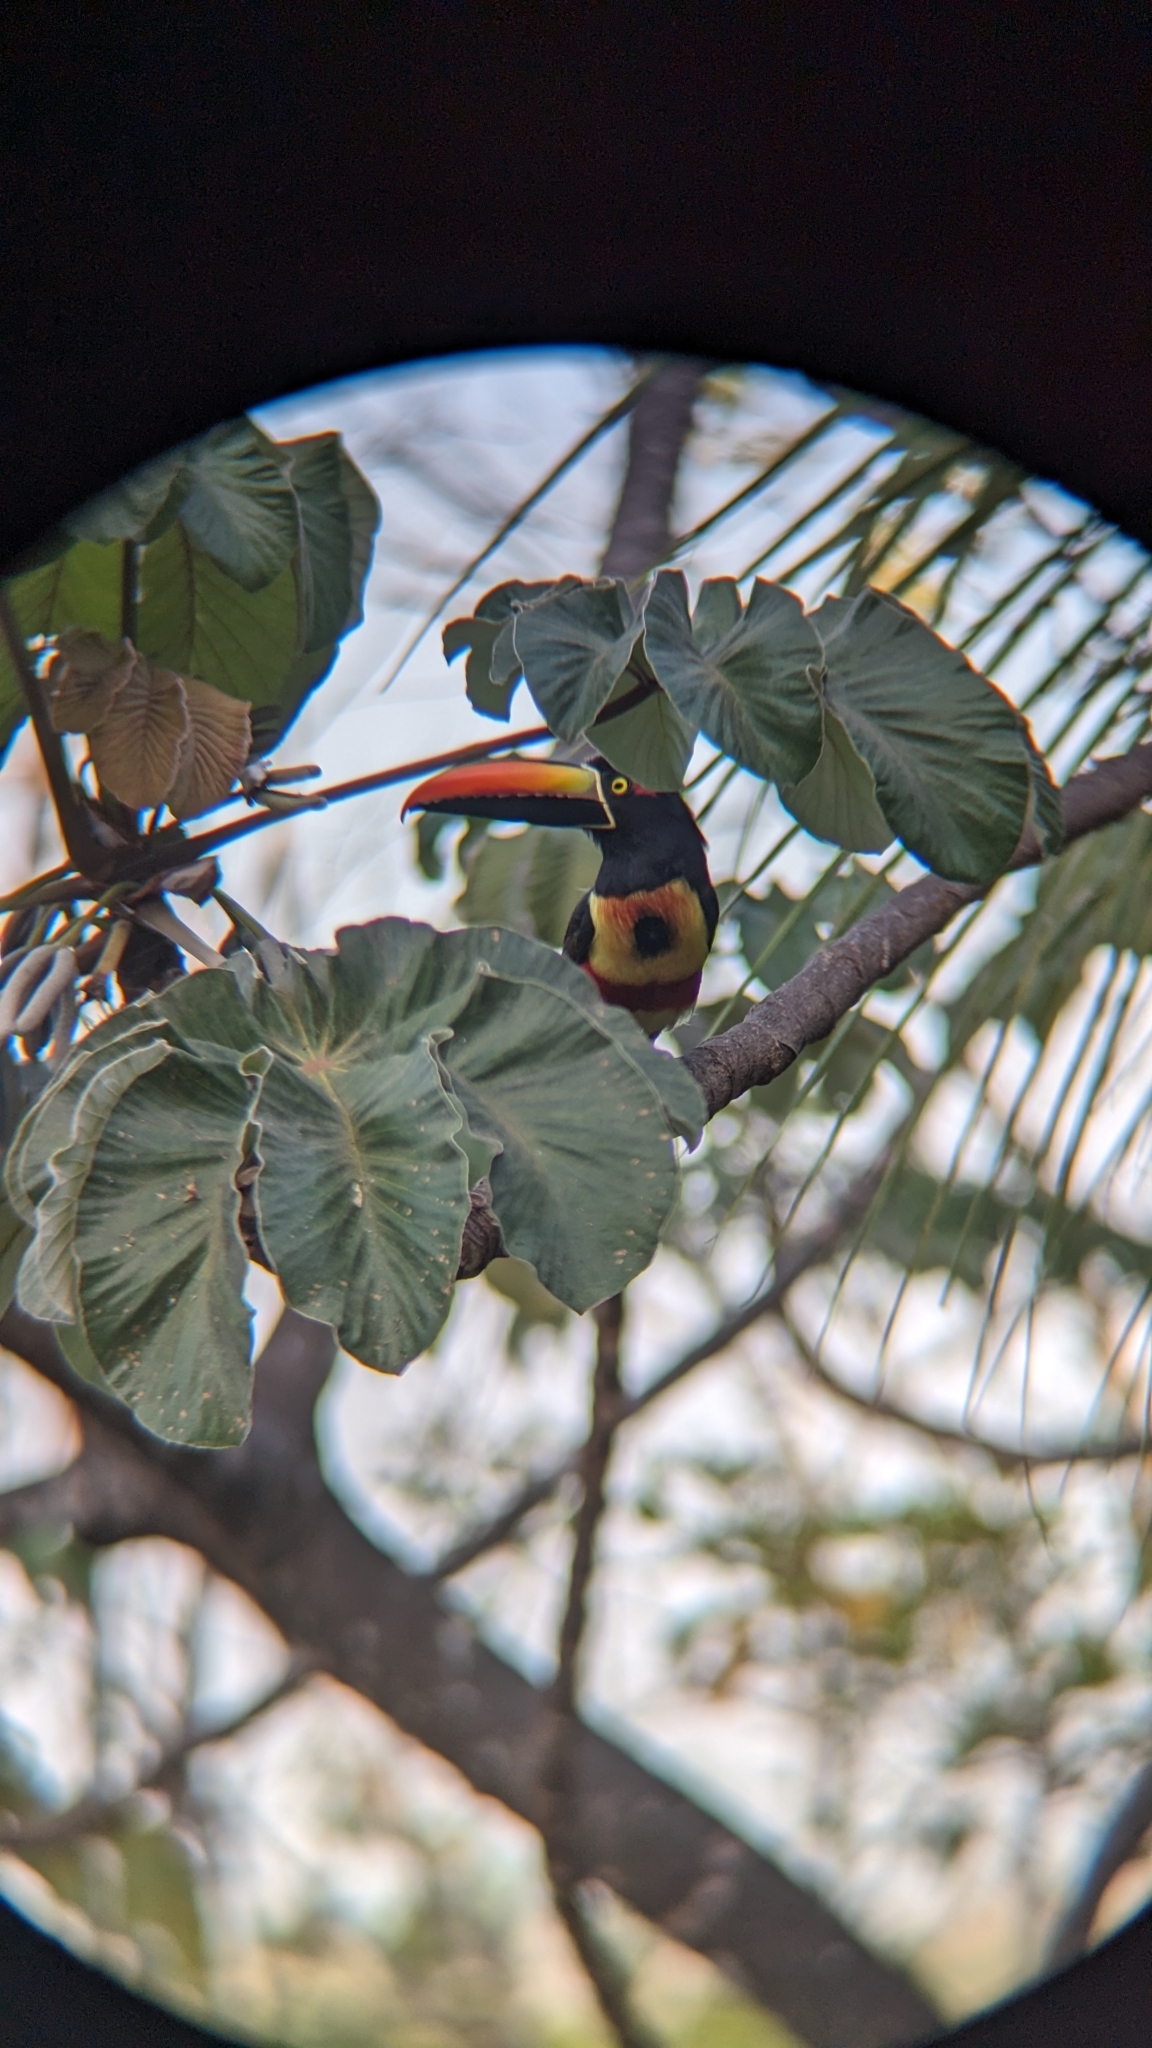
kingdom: Animalia
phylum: Chordata
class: Aves
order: Piciformes
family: Ramphastidae
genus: Pteroglossus
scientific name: Pteroglossus frantzii
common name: Fiery-billed aracari
